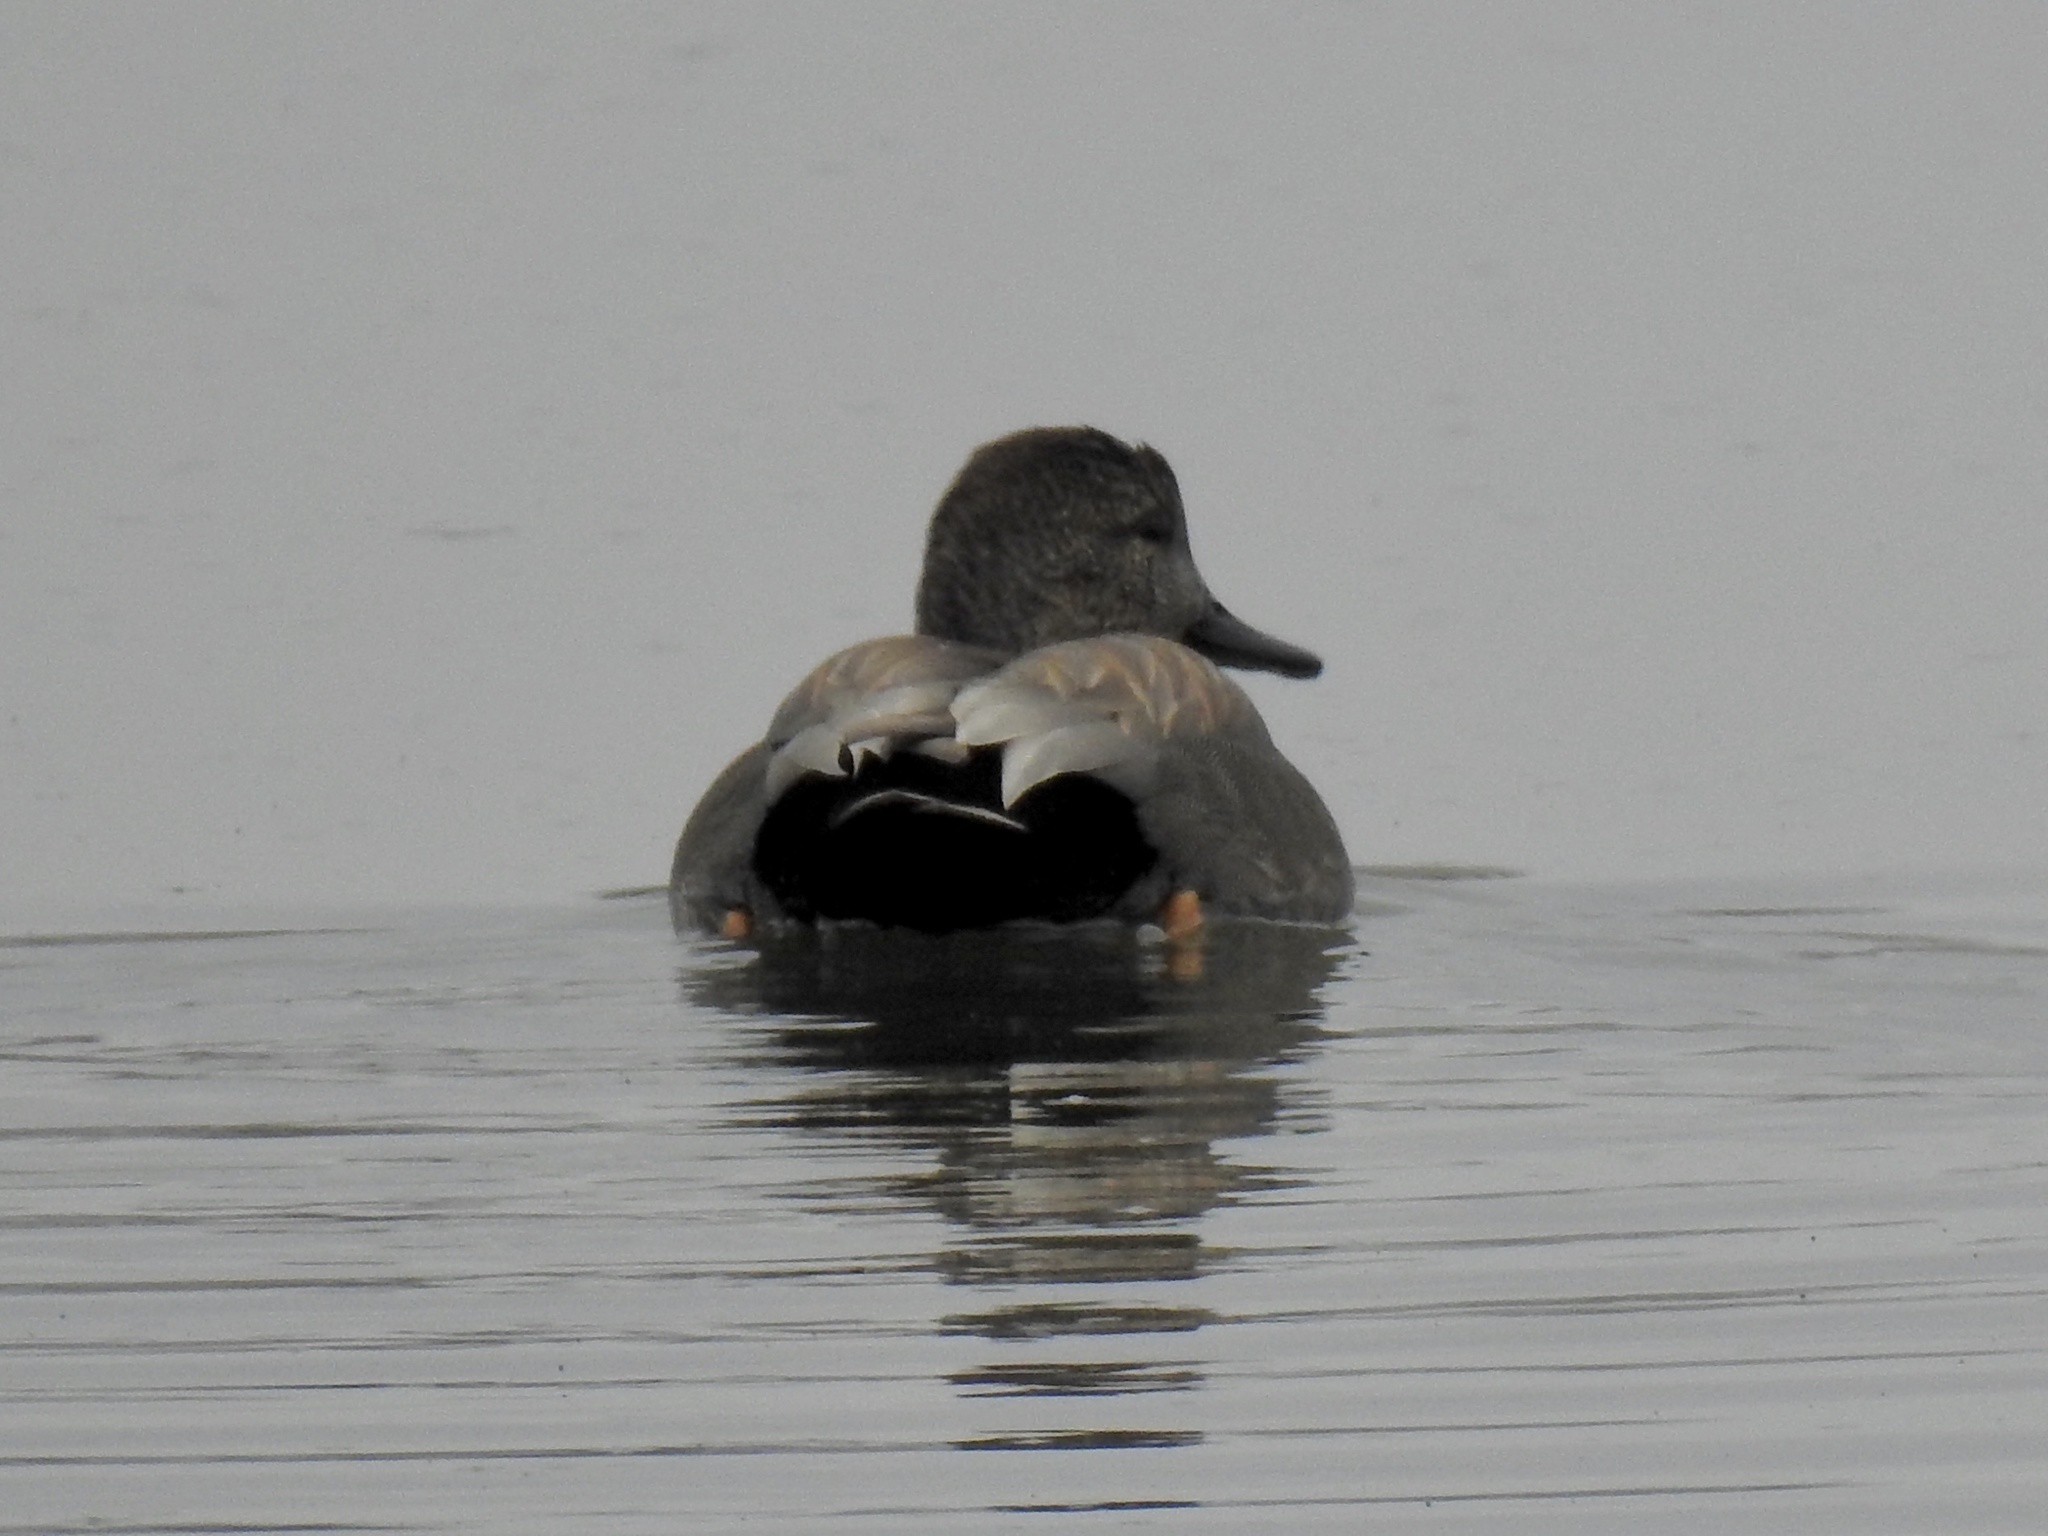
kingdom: Animalia
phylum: Chordata
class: Aves
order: Anseriformes
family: Anatidae
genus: Mareca
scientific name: Mareca strepera
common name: Gadwall
